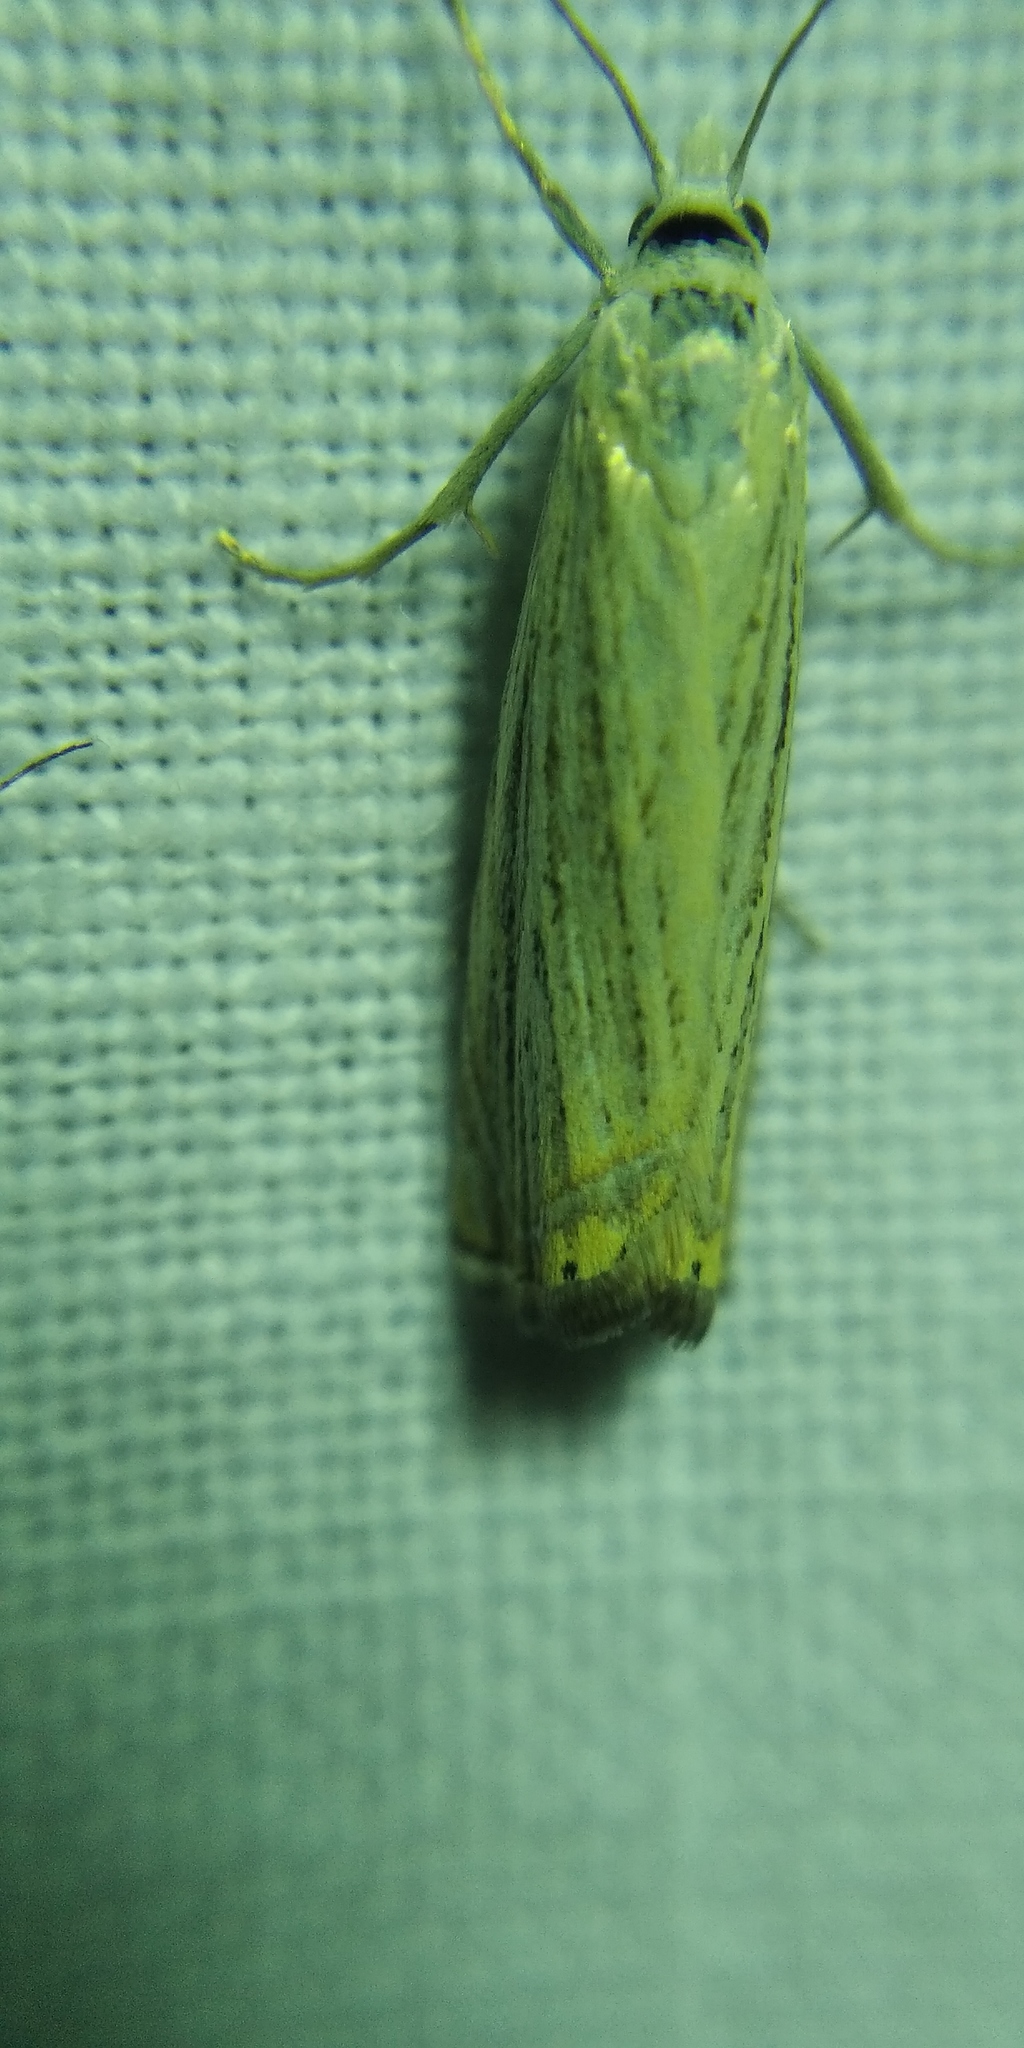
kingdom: Animalia
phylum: Arthropoda
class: Insecta
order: Lepidoptera
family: Crambidae
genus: Chrysoteuchia
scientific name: Chrysoteuchia culmella
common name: Garden grass-veneer
